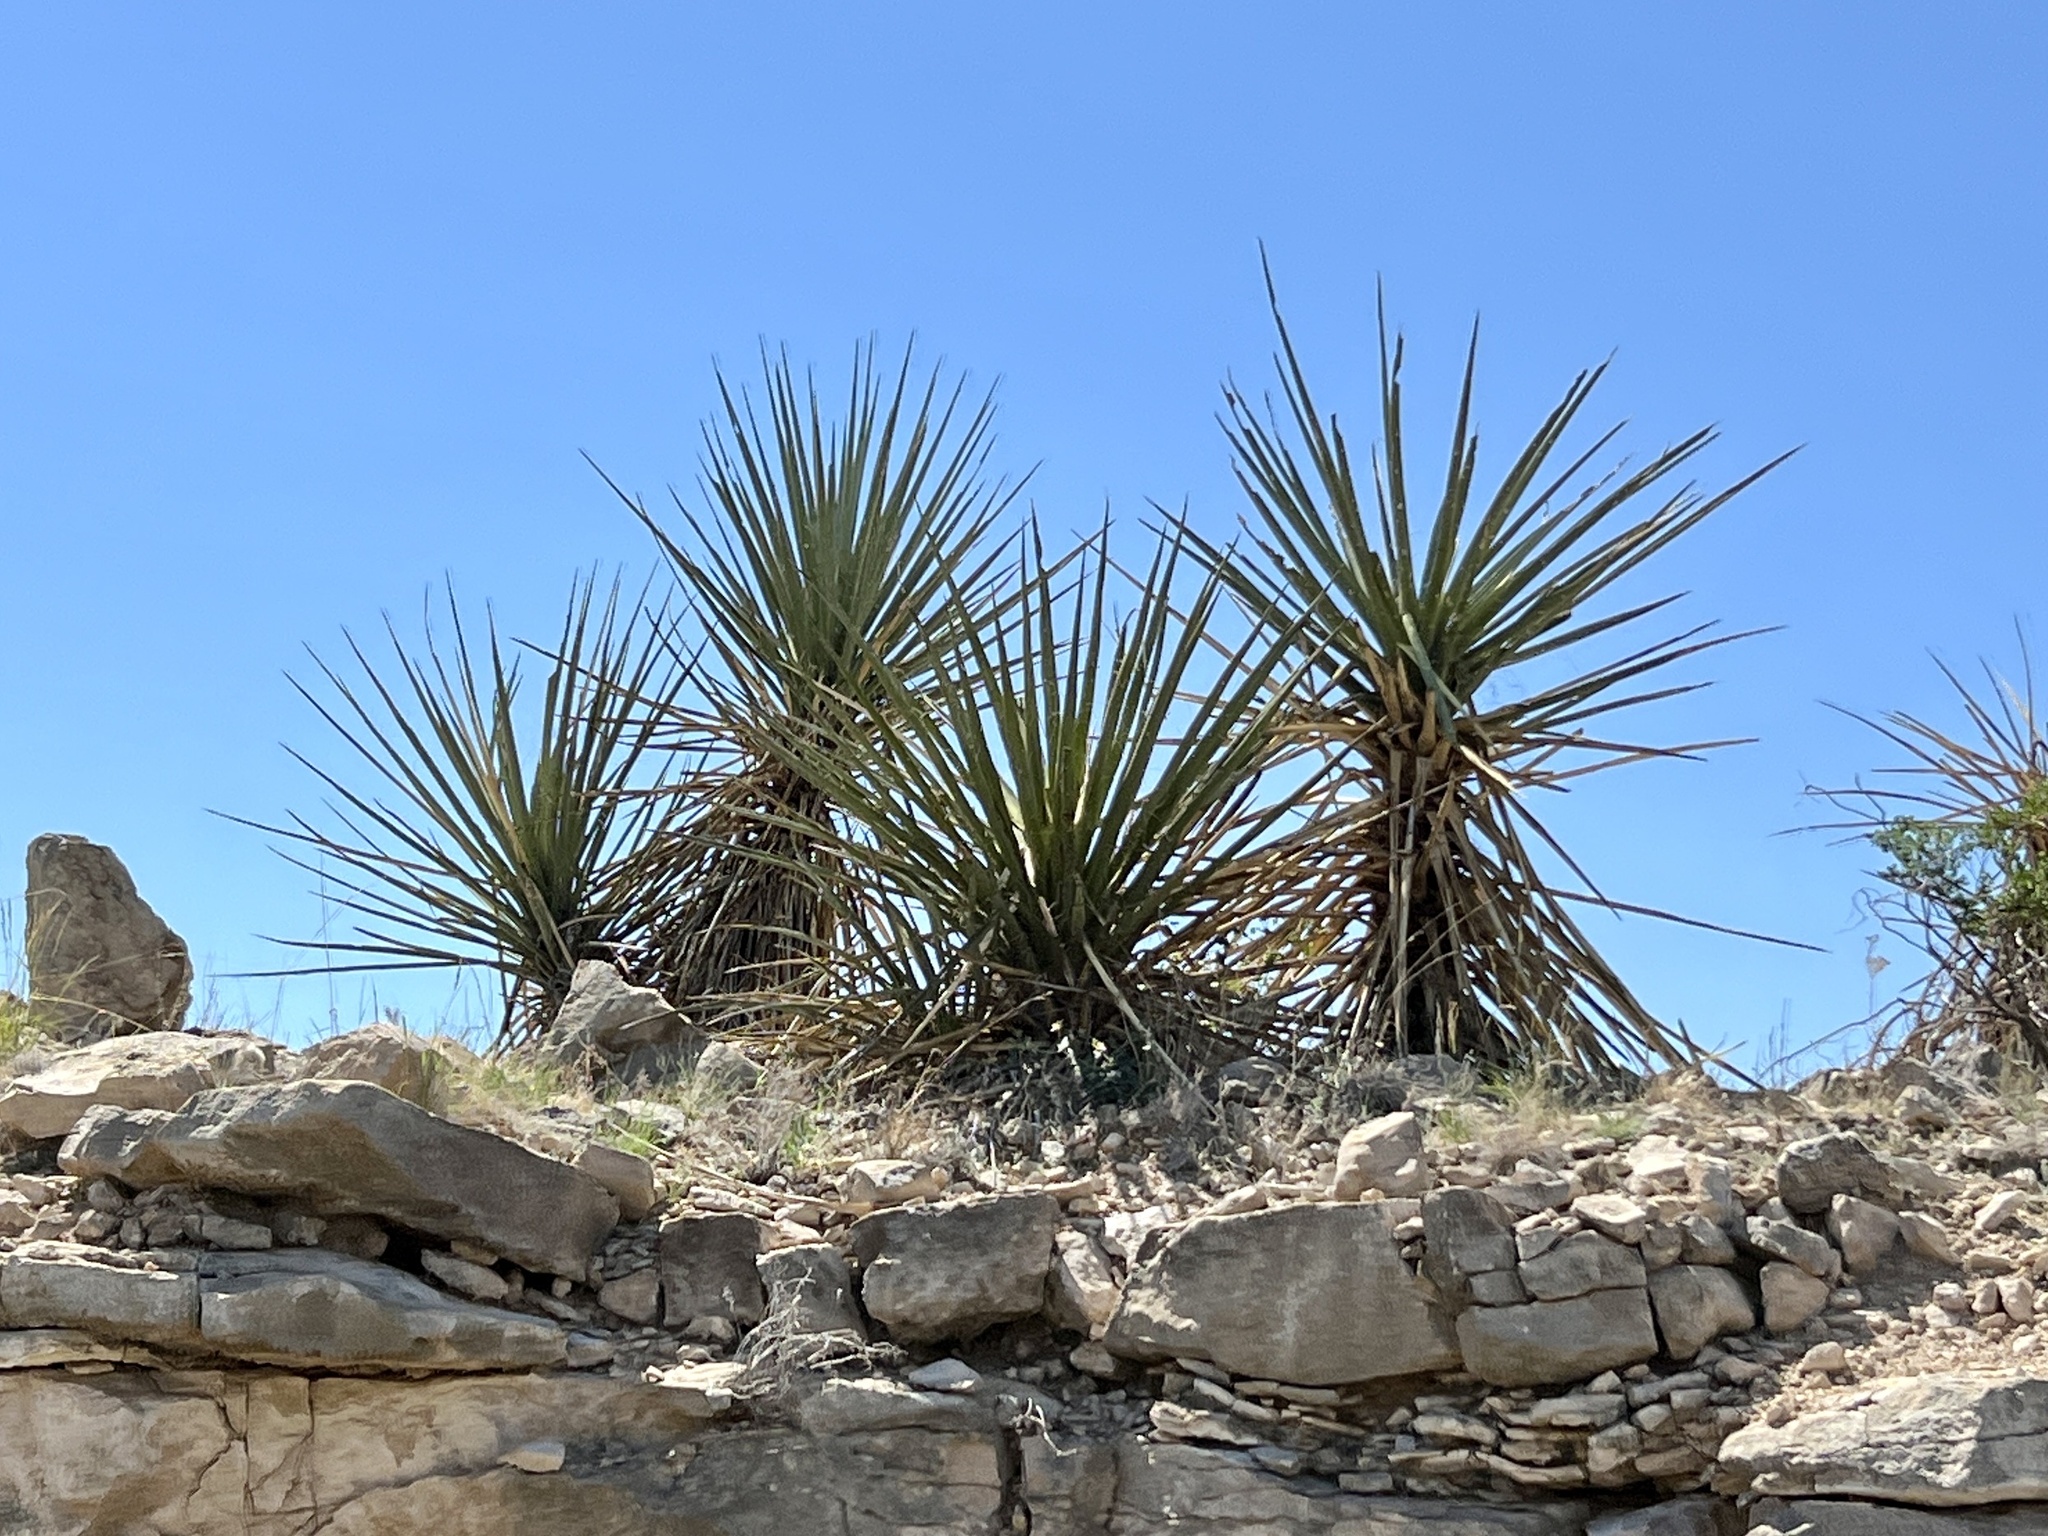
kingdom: Plantae
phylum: Tracheophyta
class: Liliopsida
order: Asparagales
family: Asparagaceae
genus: Yucca
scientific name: Yucca treculiana
